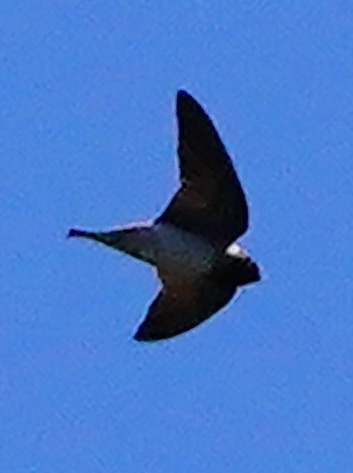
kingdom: Animalia
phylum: Chordata
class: Aves
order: Passeriformes
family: Hirundinidae
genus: Petrochelidon
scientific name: Petrochelidon pyrrhonota
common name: American cliff swallow
